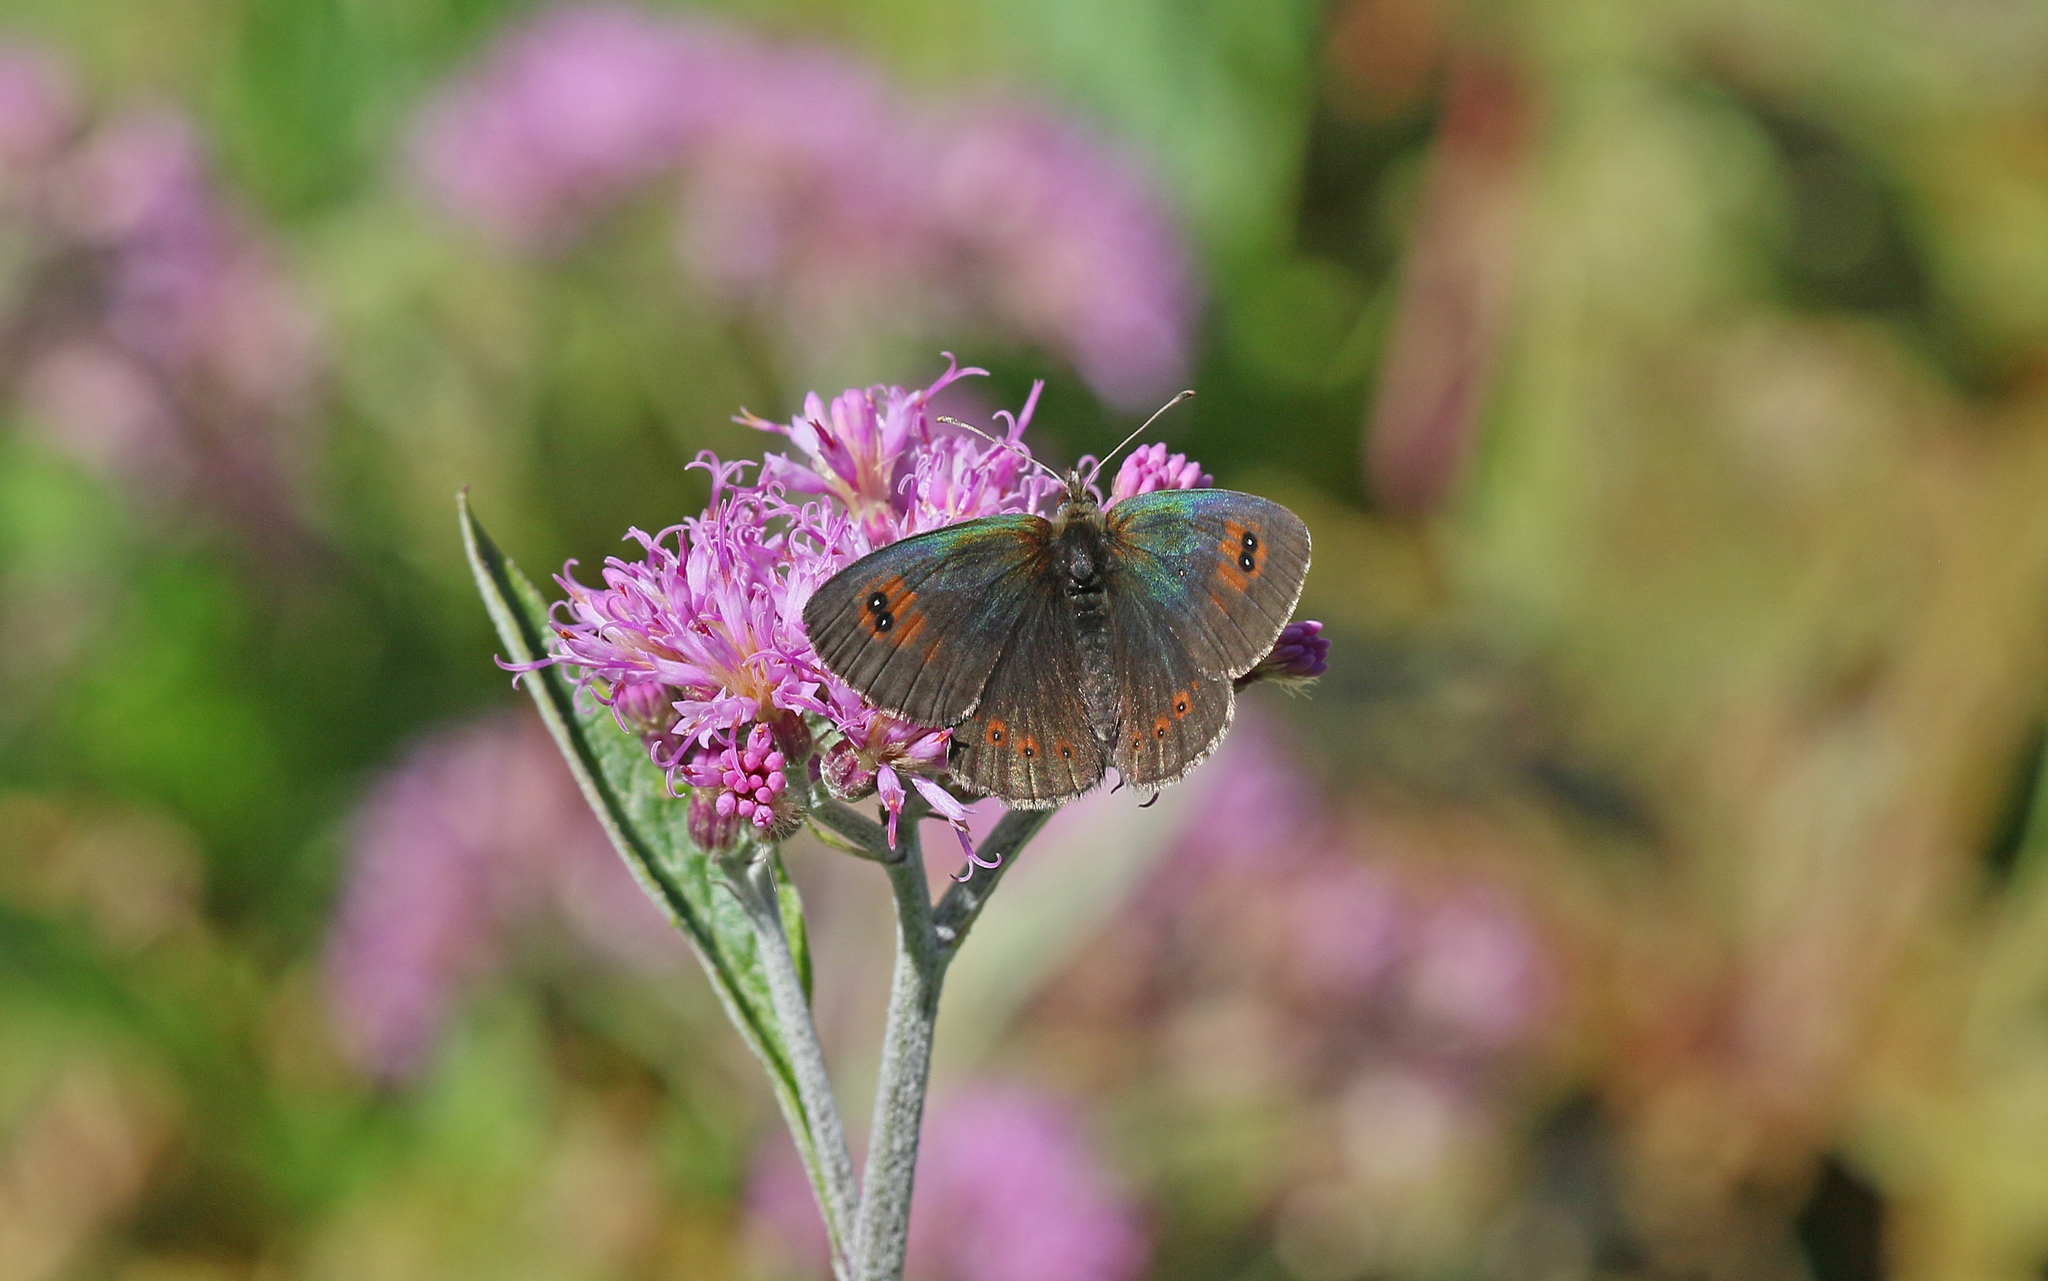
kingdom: Animalia
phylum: Arthropoda
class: Insecta
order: Lepidoptera
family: Nymphalidae
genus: Erebia
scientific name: Erebia cassioides
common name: Common brassy ringlet
